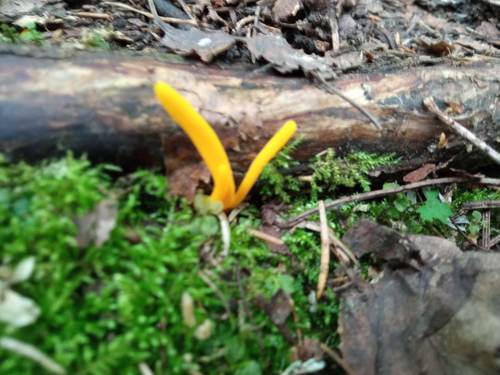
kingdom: Fungi
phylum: Basidiomycota
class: Agaricomycetes
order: Agaricales
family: Clavariaceae
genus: Clavulinopsis
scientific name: Clavulinopsis laeticolor
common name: Handsome club
